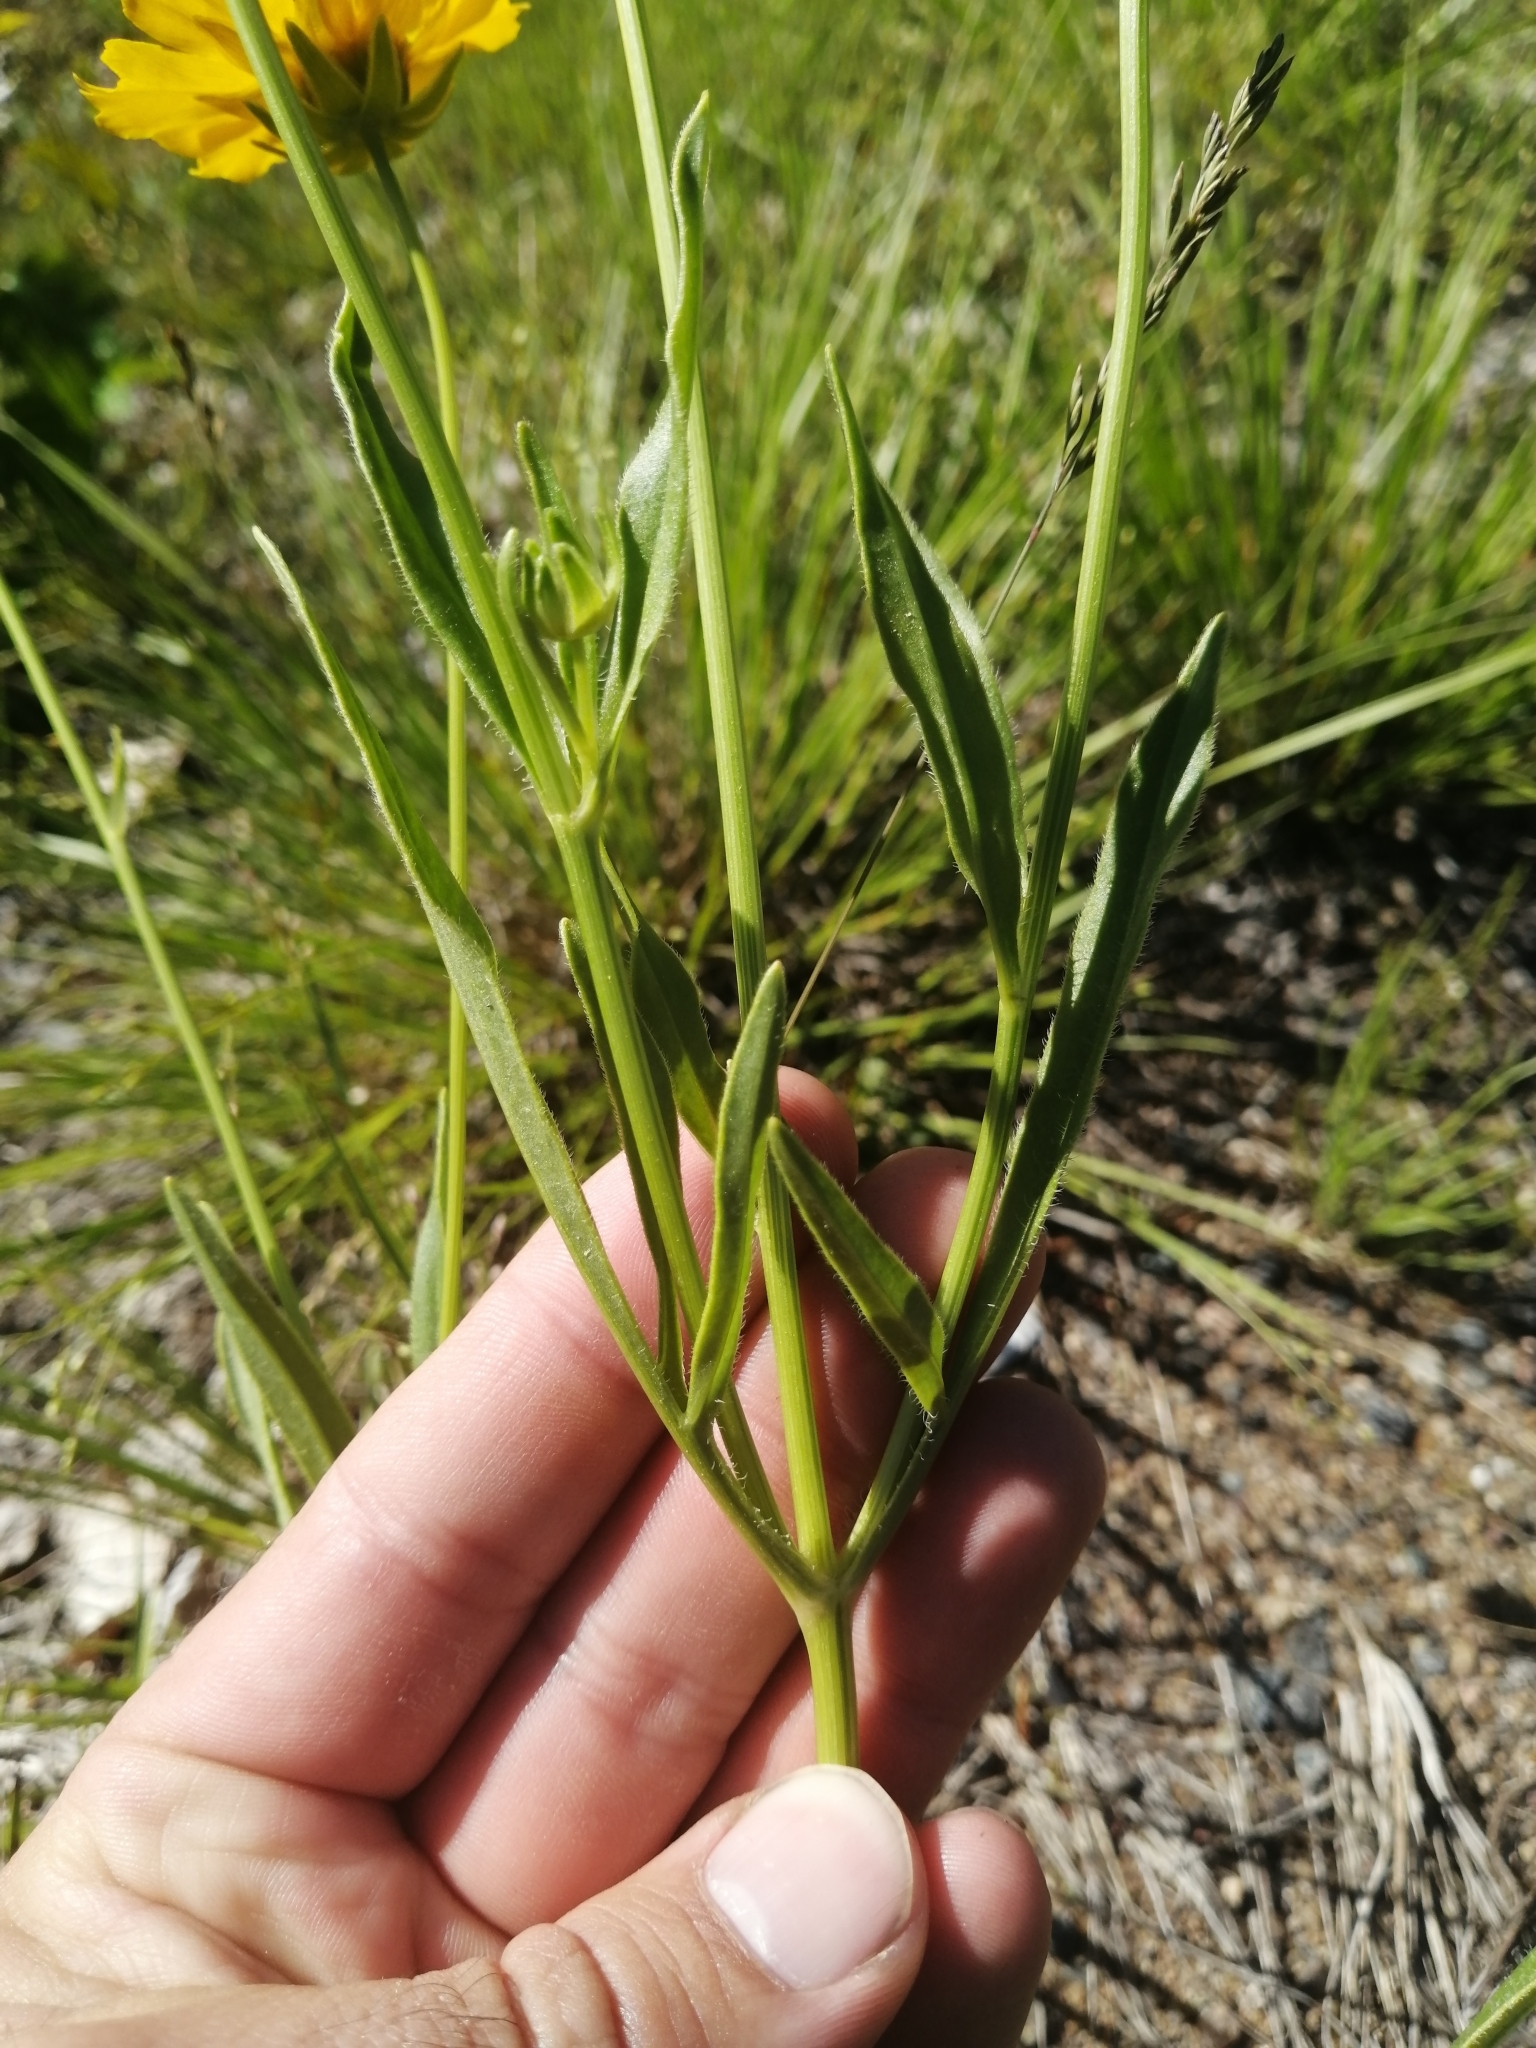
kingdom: Plantae
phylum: Tracheophyta
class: Magnoliopsida
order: Asterales
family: Asteraceae
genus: Coreopsis
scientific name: Coreopsis lanceolata
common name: Garden coreopsis
